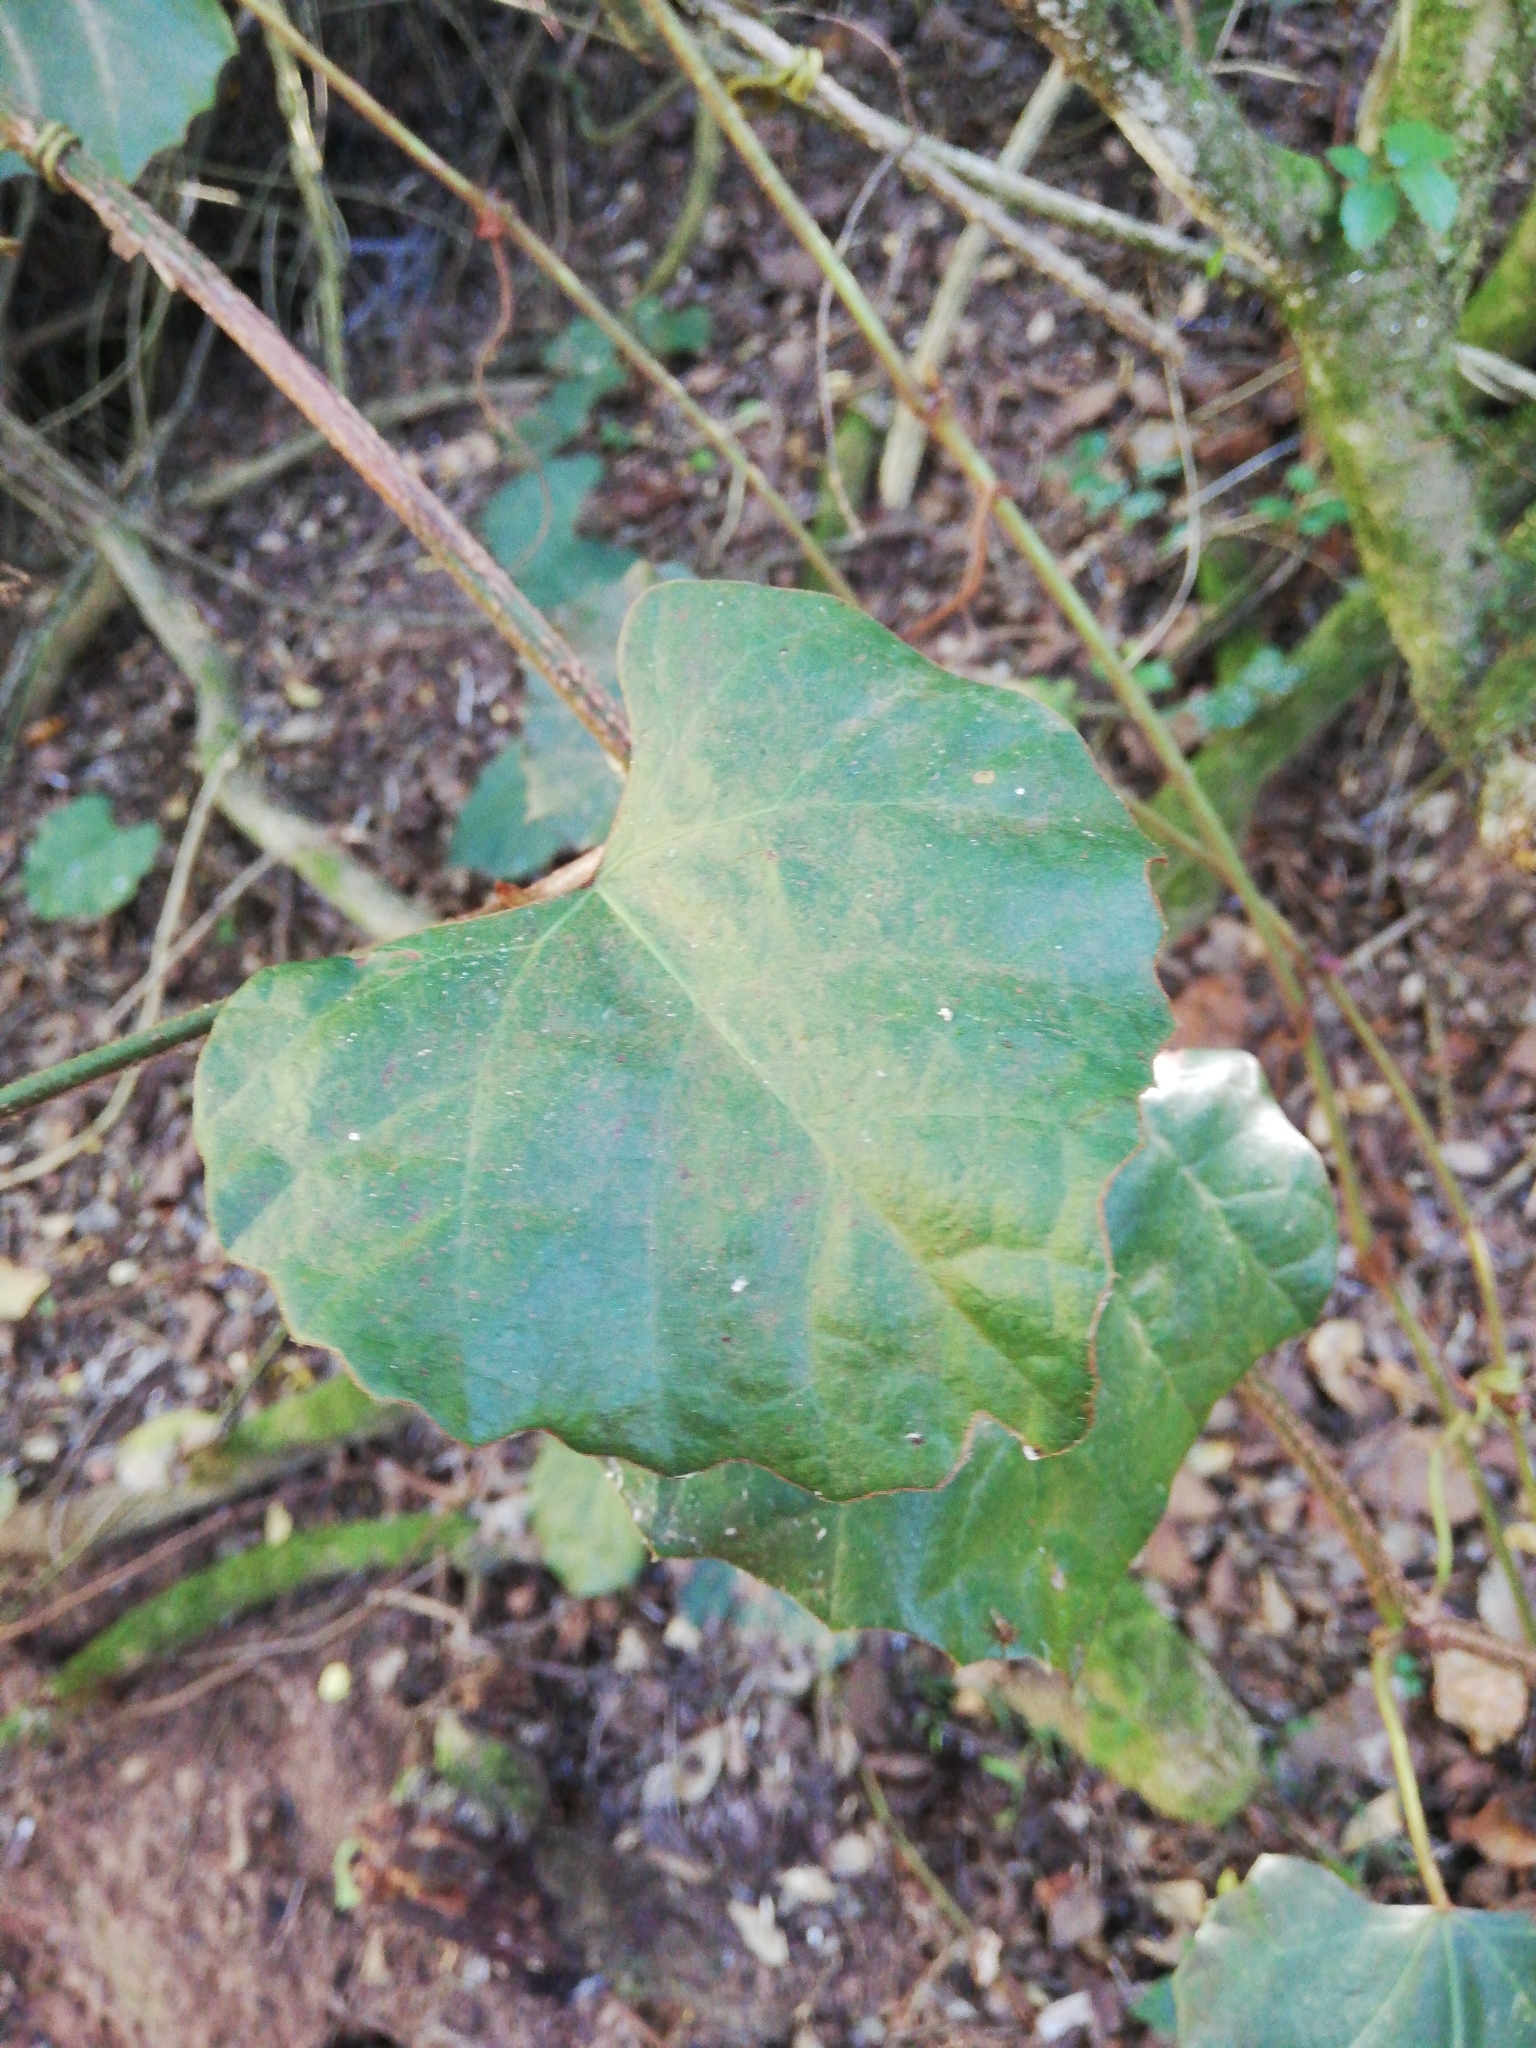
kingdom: Plantae
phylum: Tracheophyta
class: Magnoliopsida
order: Vitales
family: Vitaceae
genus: Rhoicissus
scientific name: Rhoicissus tomentosa
